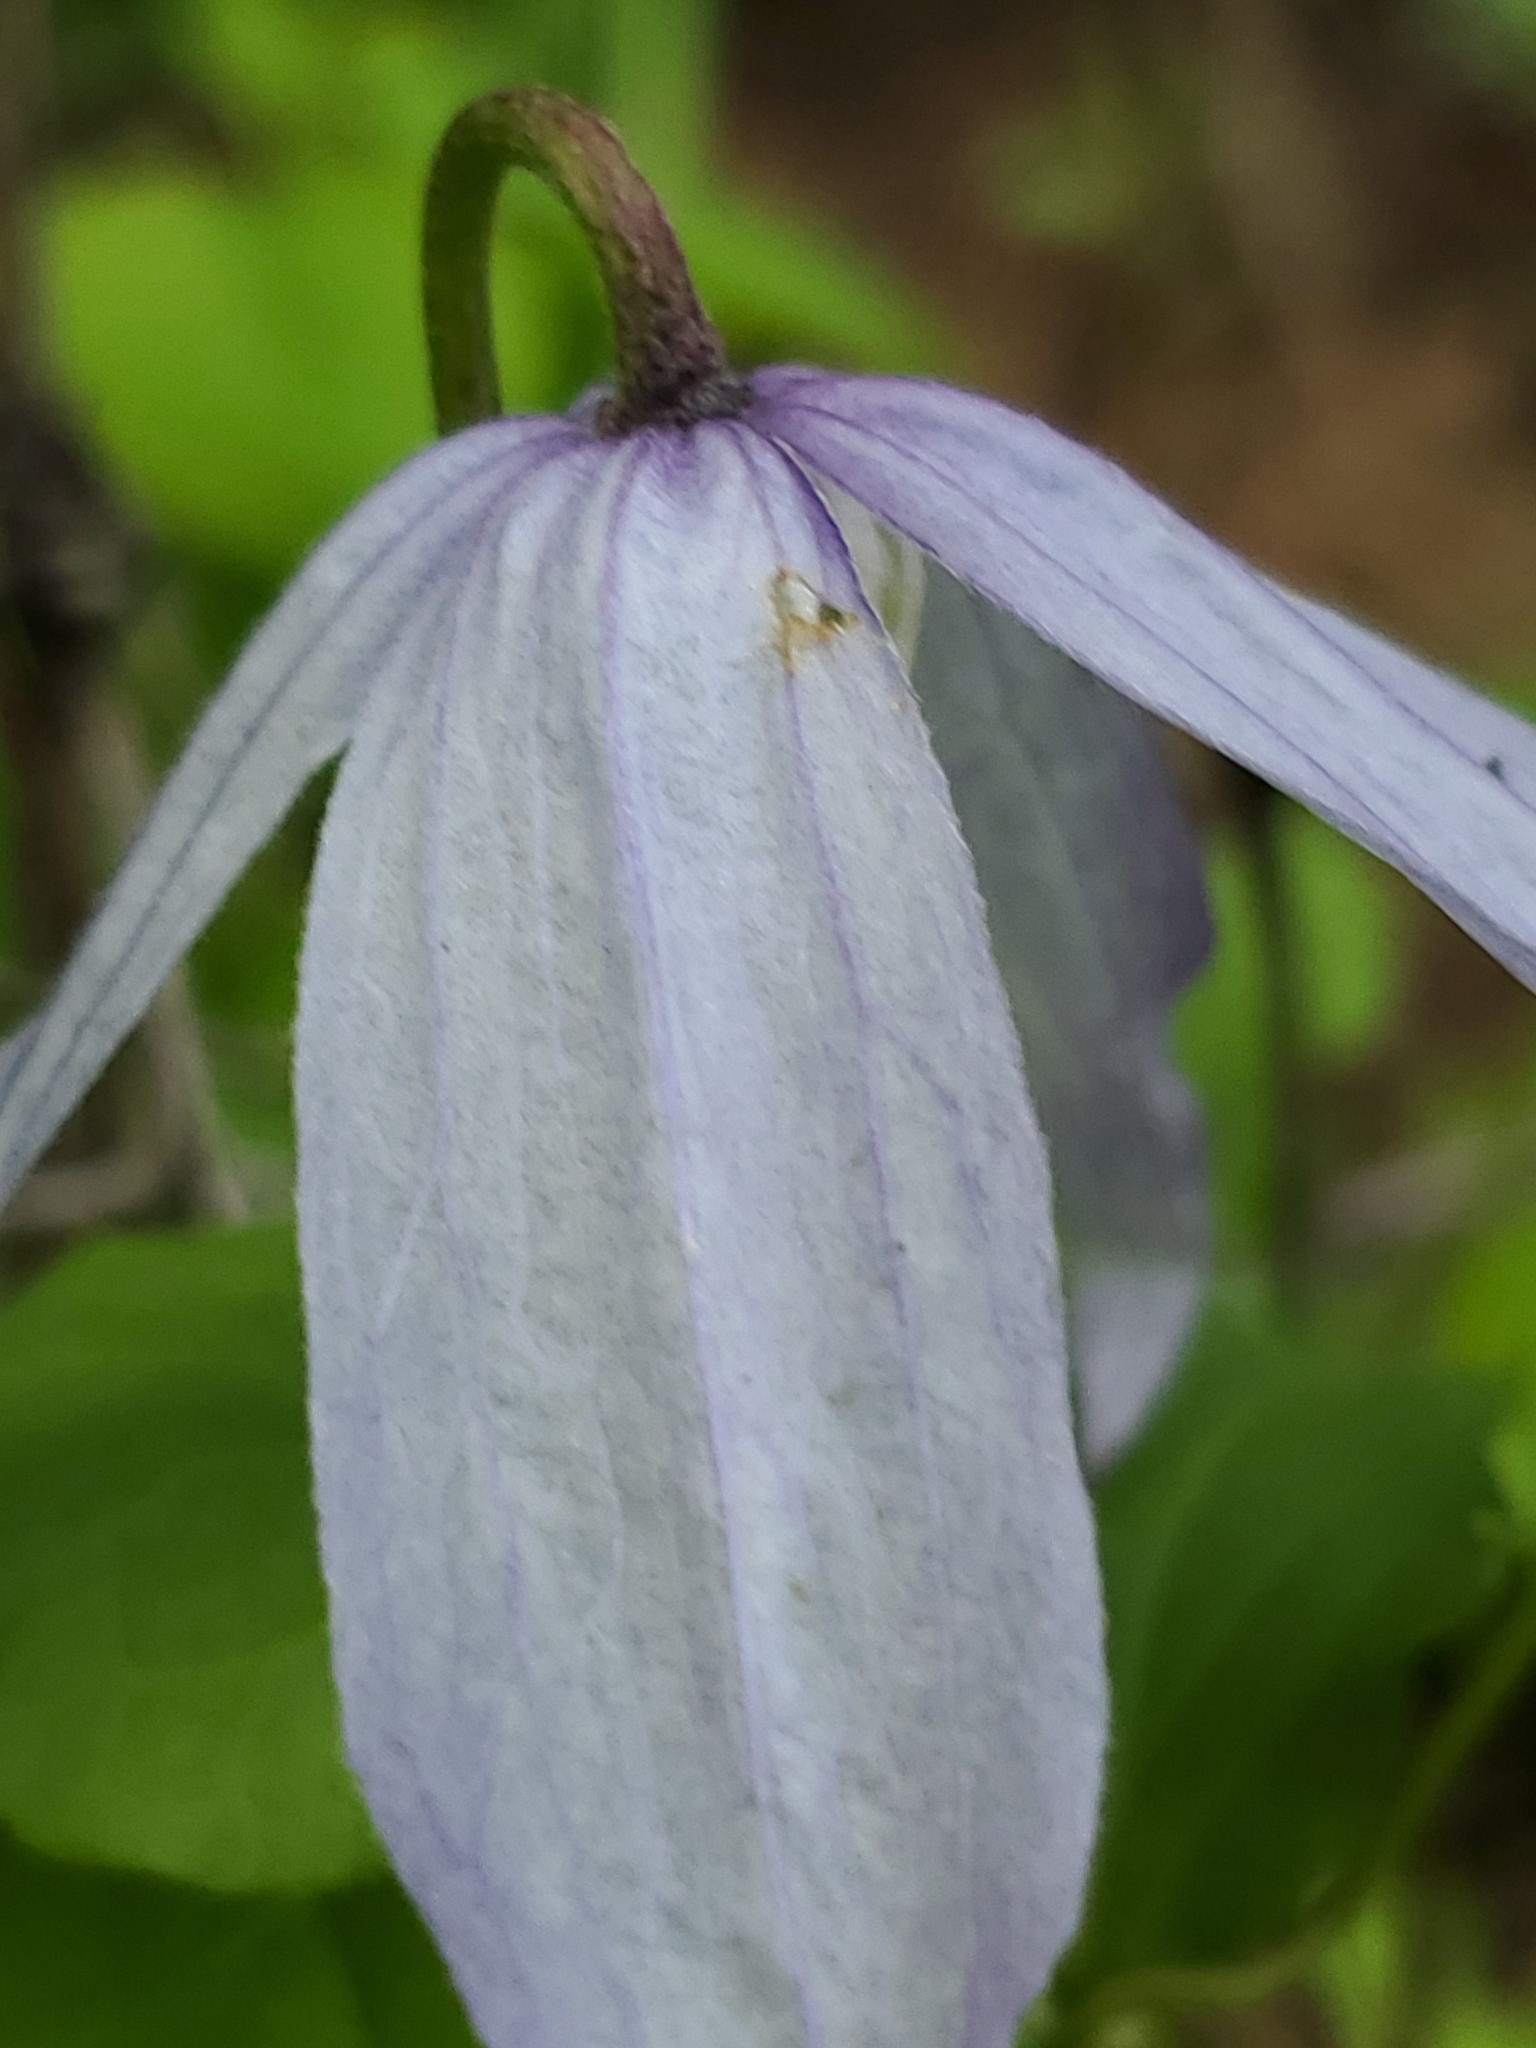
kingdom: Plantae
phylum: Tracheophyta
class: Magnoliopsida
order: Ranunculales
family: Ranunculaceae
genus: Clematis
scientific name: Clematis occidentalis
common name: Purple clematis
